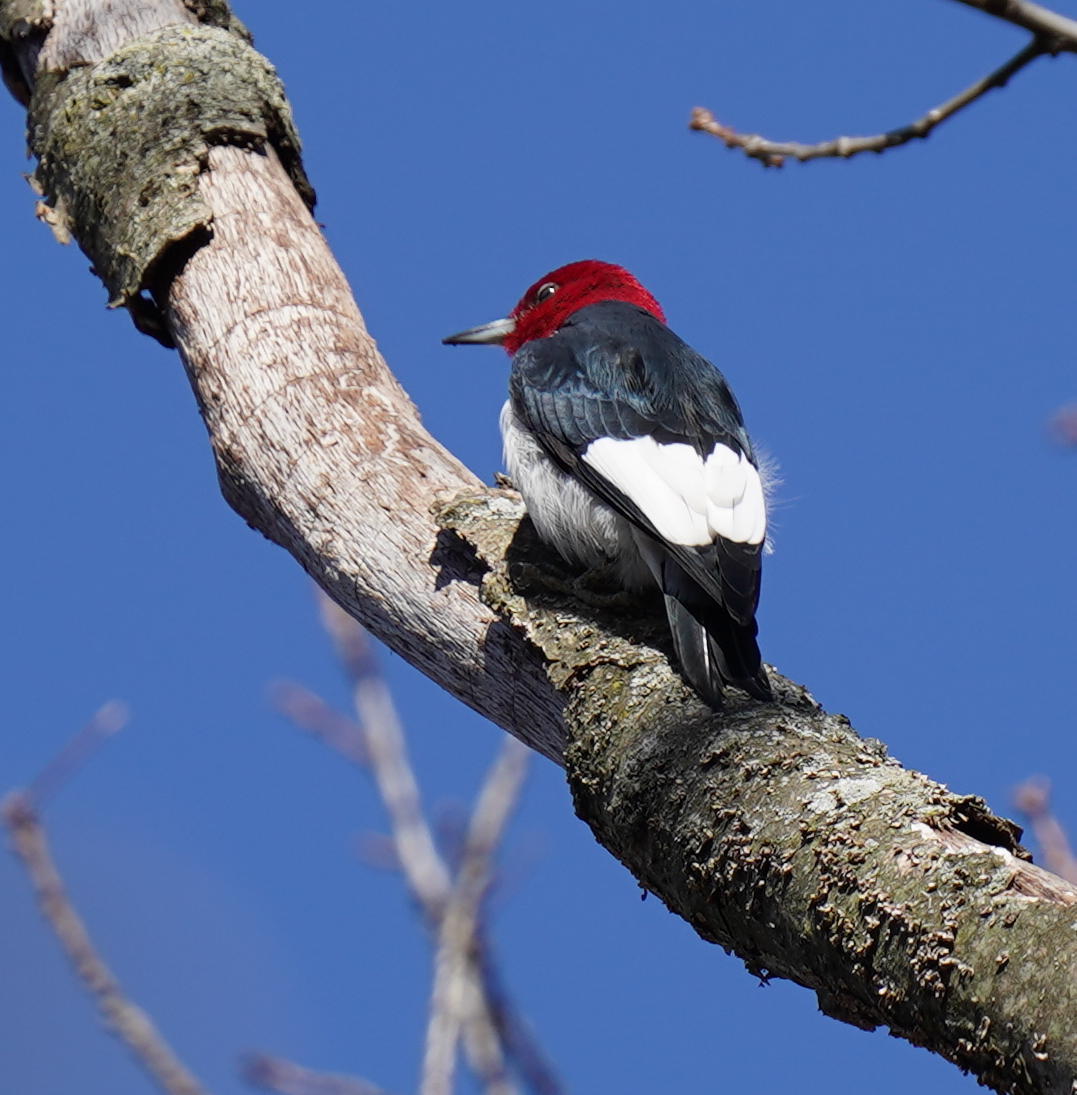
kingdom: Animalia
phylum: Chordata
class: Aves
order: Piciformes
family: Picidae
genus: Melanerpes
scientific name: Melanerpes erythrocephalus
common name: Red-headed woodpecker
